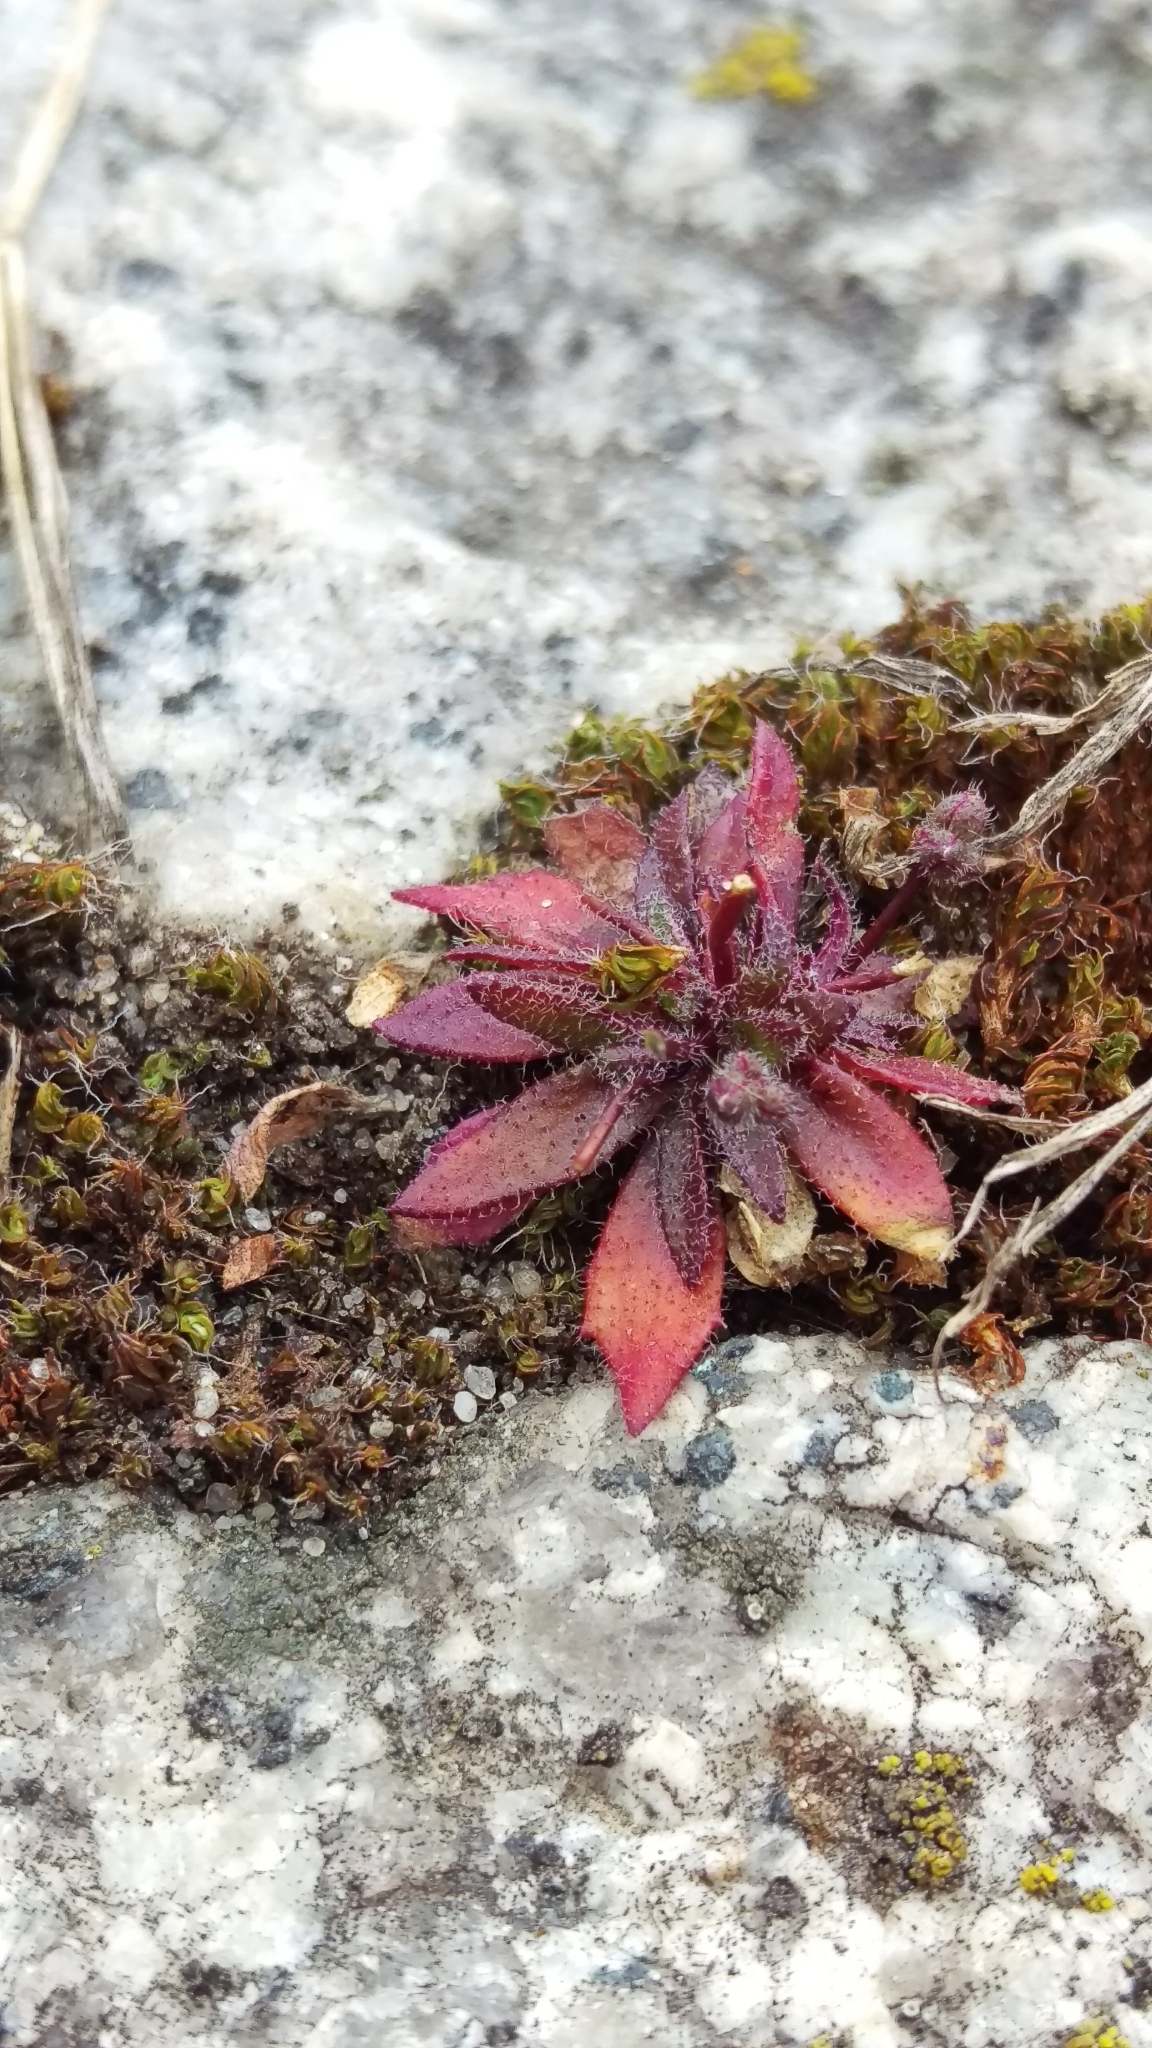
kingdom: Plantae
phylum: Tracheophyta
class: Magnoliopsida
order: Brassicales
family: Brassicaceae
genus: Draba
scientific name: Draba verna
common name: Spring draba
